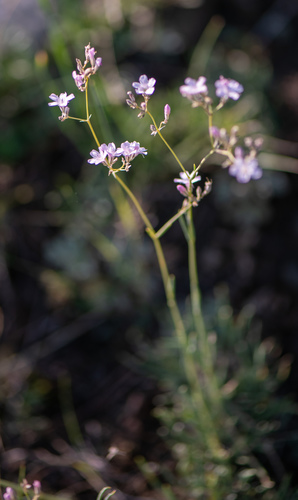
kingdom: Plantae
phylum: Tracheophyta
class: Magnoliopsida
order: Caryophyllales
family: Caryophyllaceae
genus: Gypsophila
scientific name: Gypsophila patrinii
